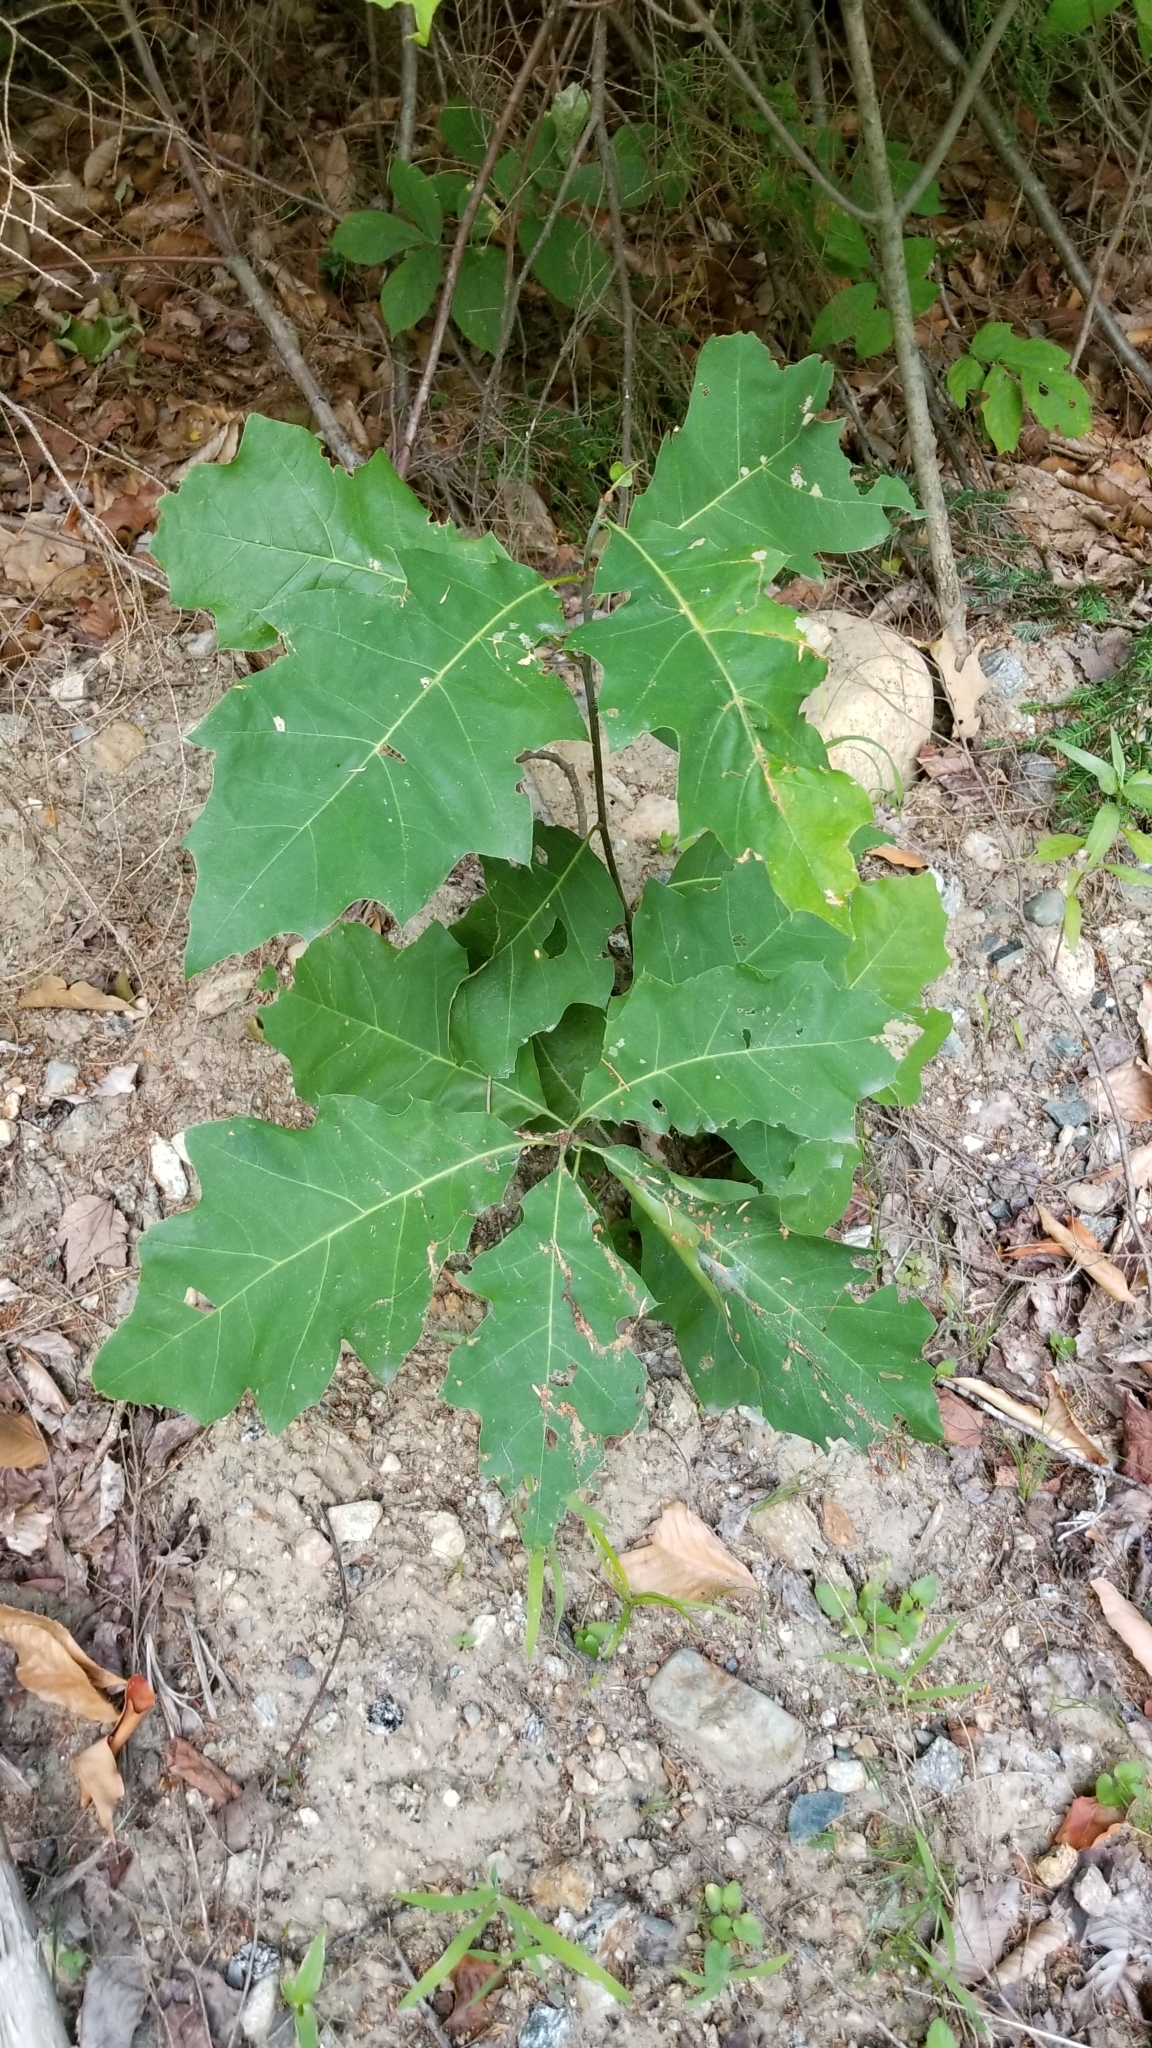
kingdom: Plantae
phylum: Tracheophyta
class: Magnoliopsida
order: Fagales
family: Fagaceae
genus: Quercus
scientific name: Quercus rubra
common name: Red oak
